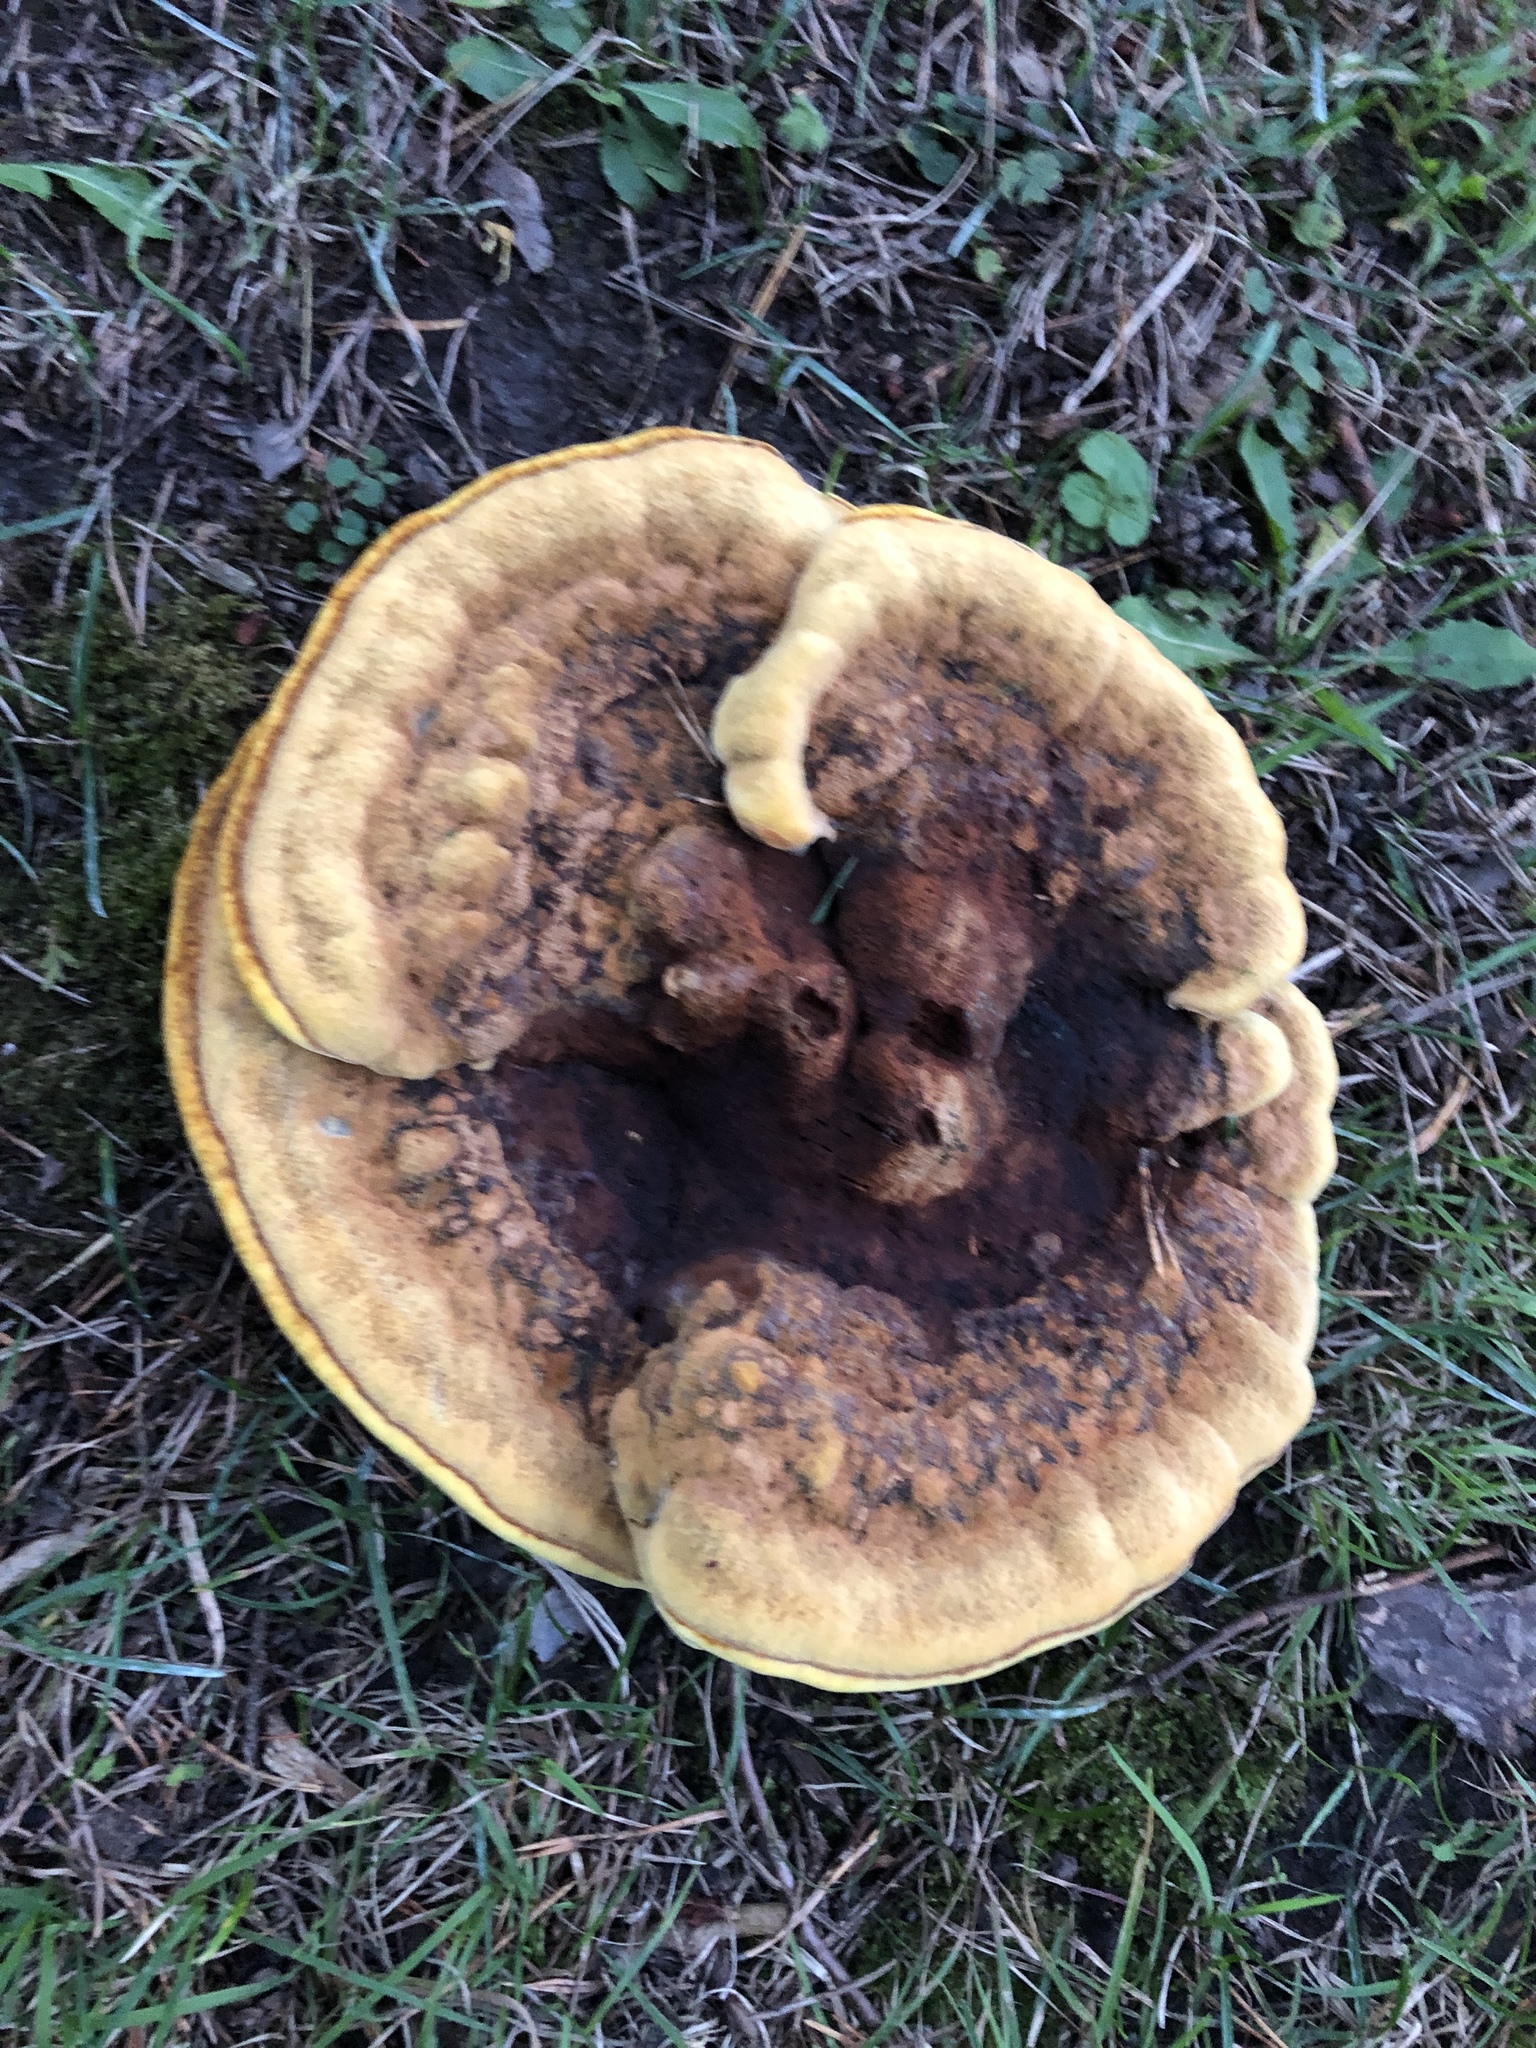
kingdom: Fungi
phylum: Basidiomycota
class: Agaricomycetes
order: Polyporales
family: Laetiporaceae
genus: Phaeolus
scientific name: Phaeolus schweinitzii
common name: Dyer's mazegill
